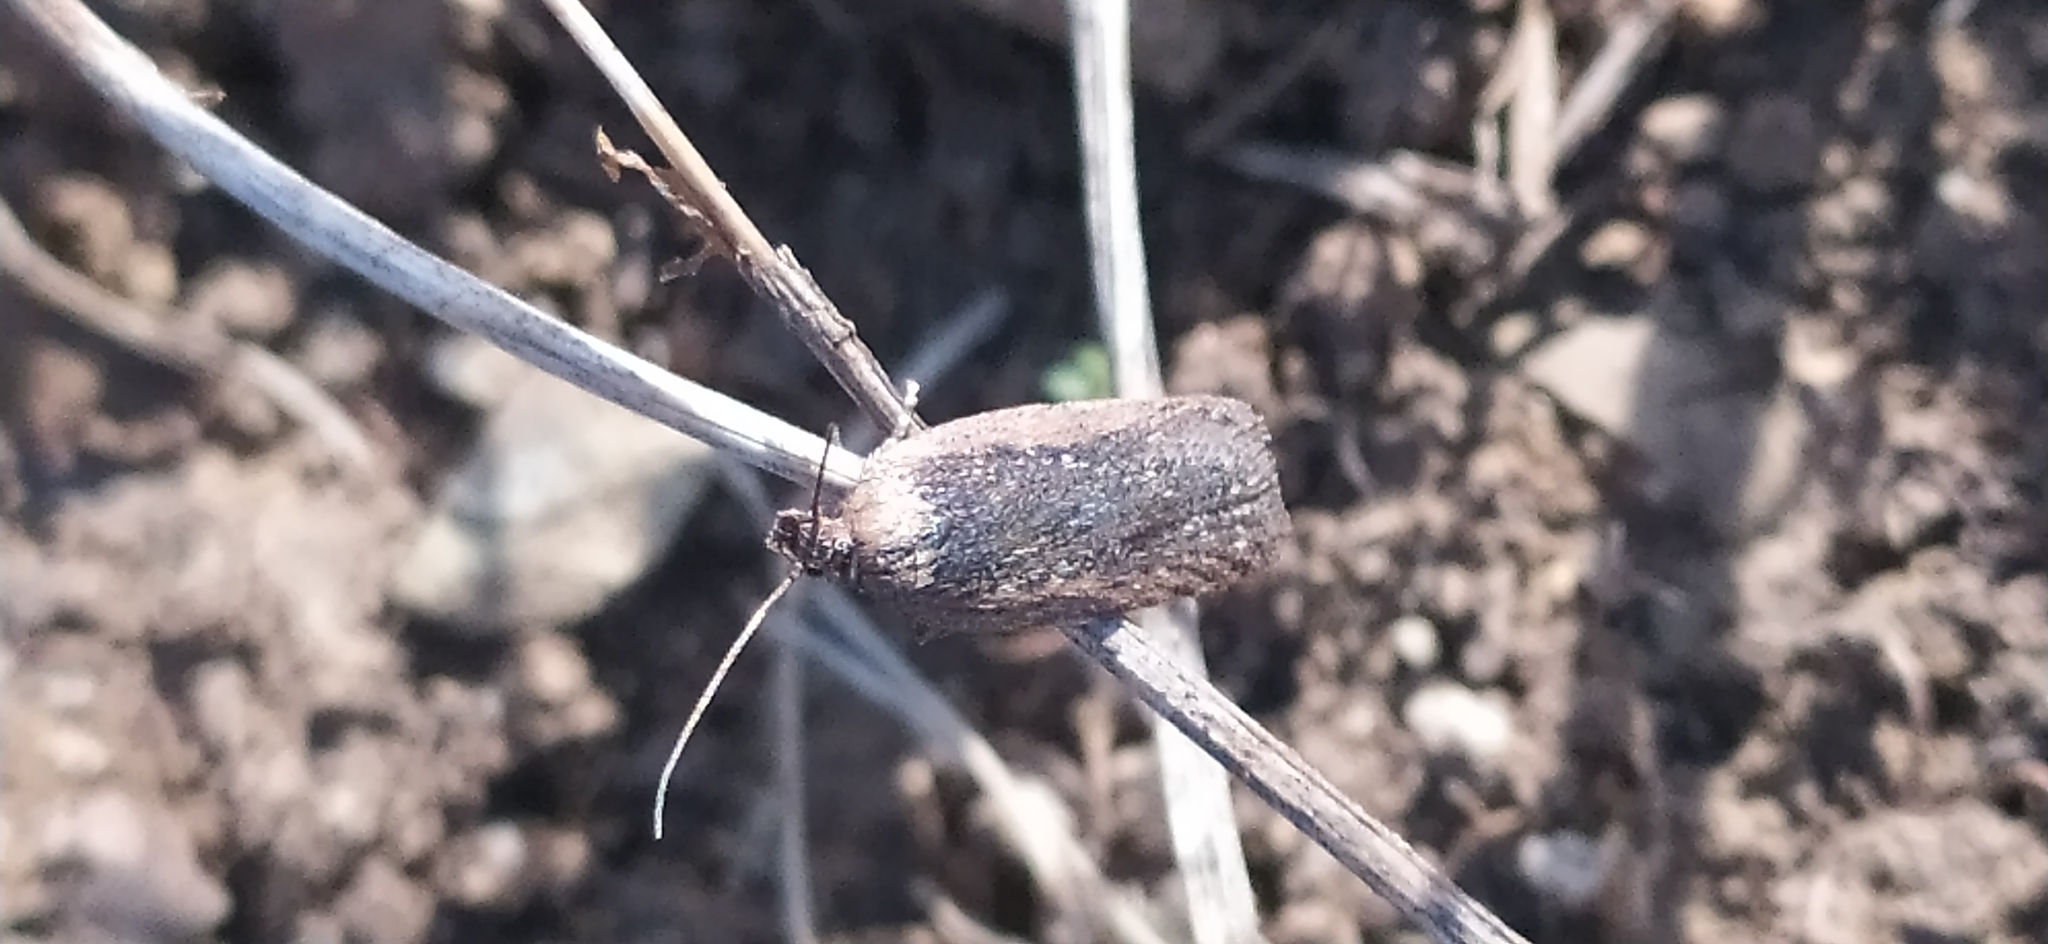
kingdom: Animalia
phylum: Arthropoda
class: Insecta
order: Lepidoptera
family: Depressariidae
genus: Depressaria
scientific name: Depressaria pimpinellae
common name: Pimpinel flat-body
